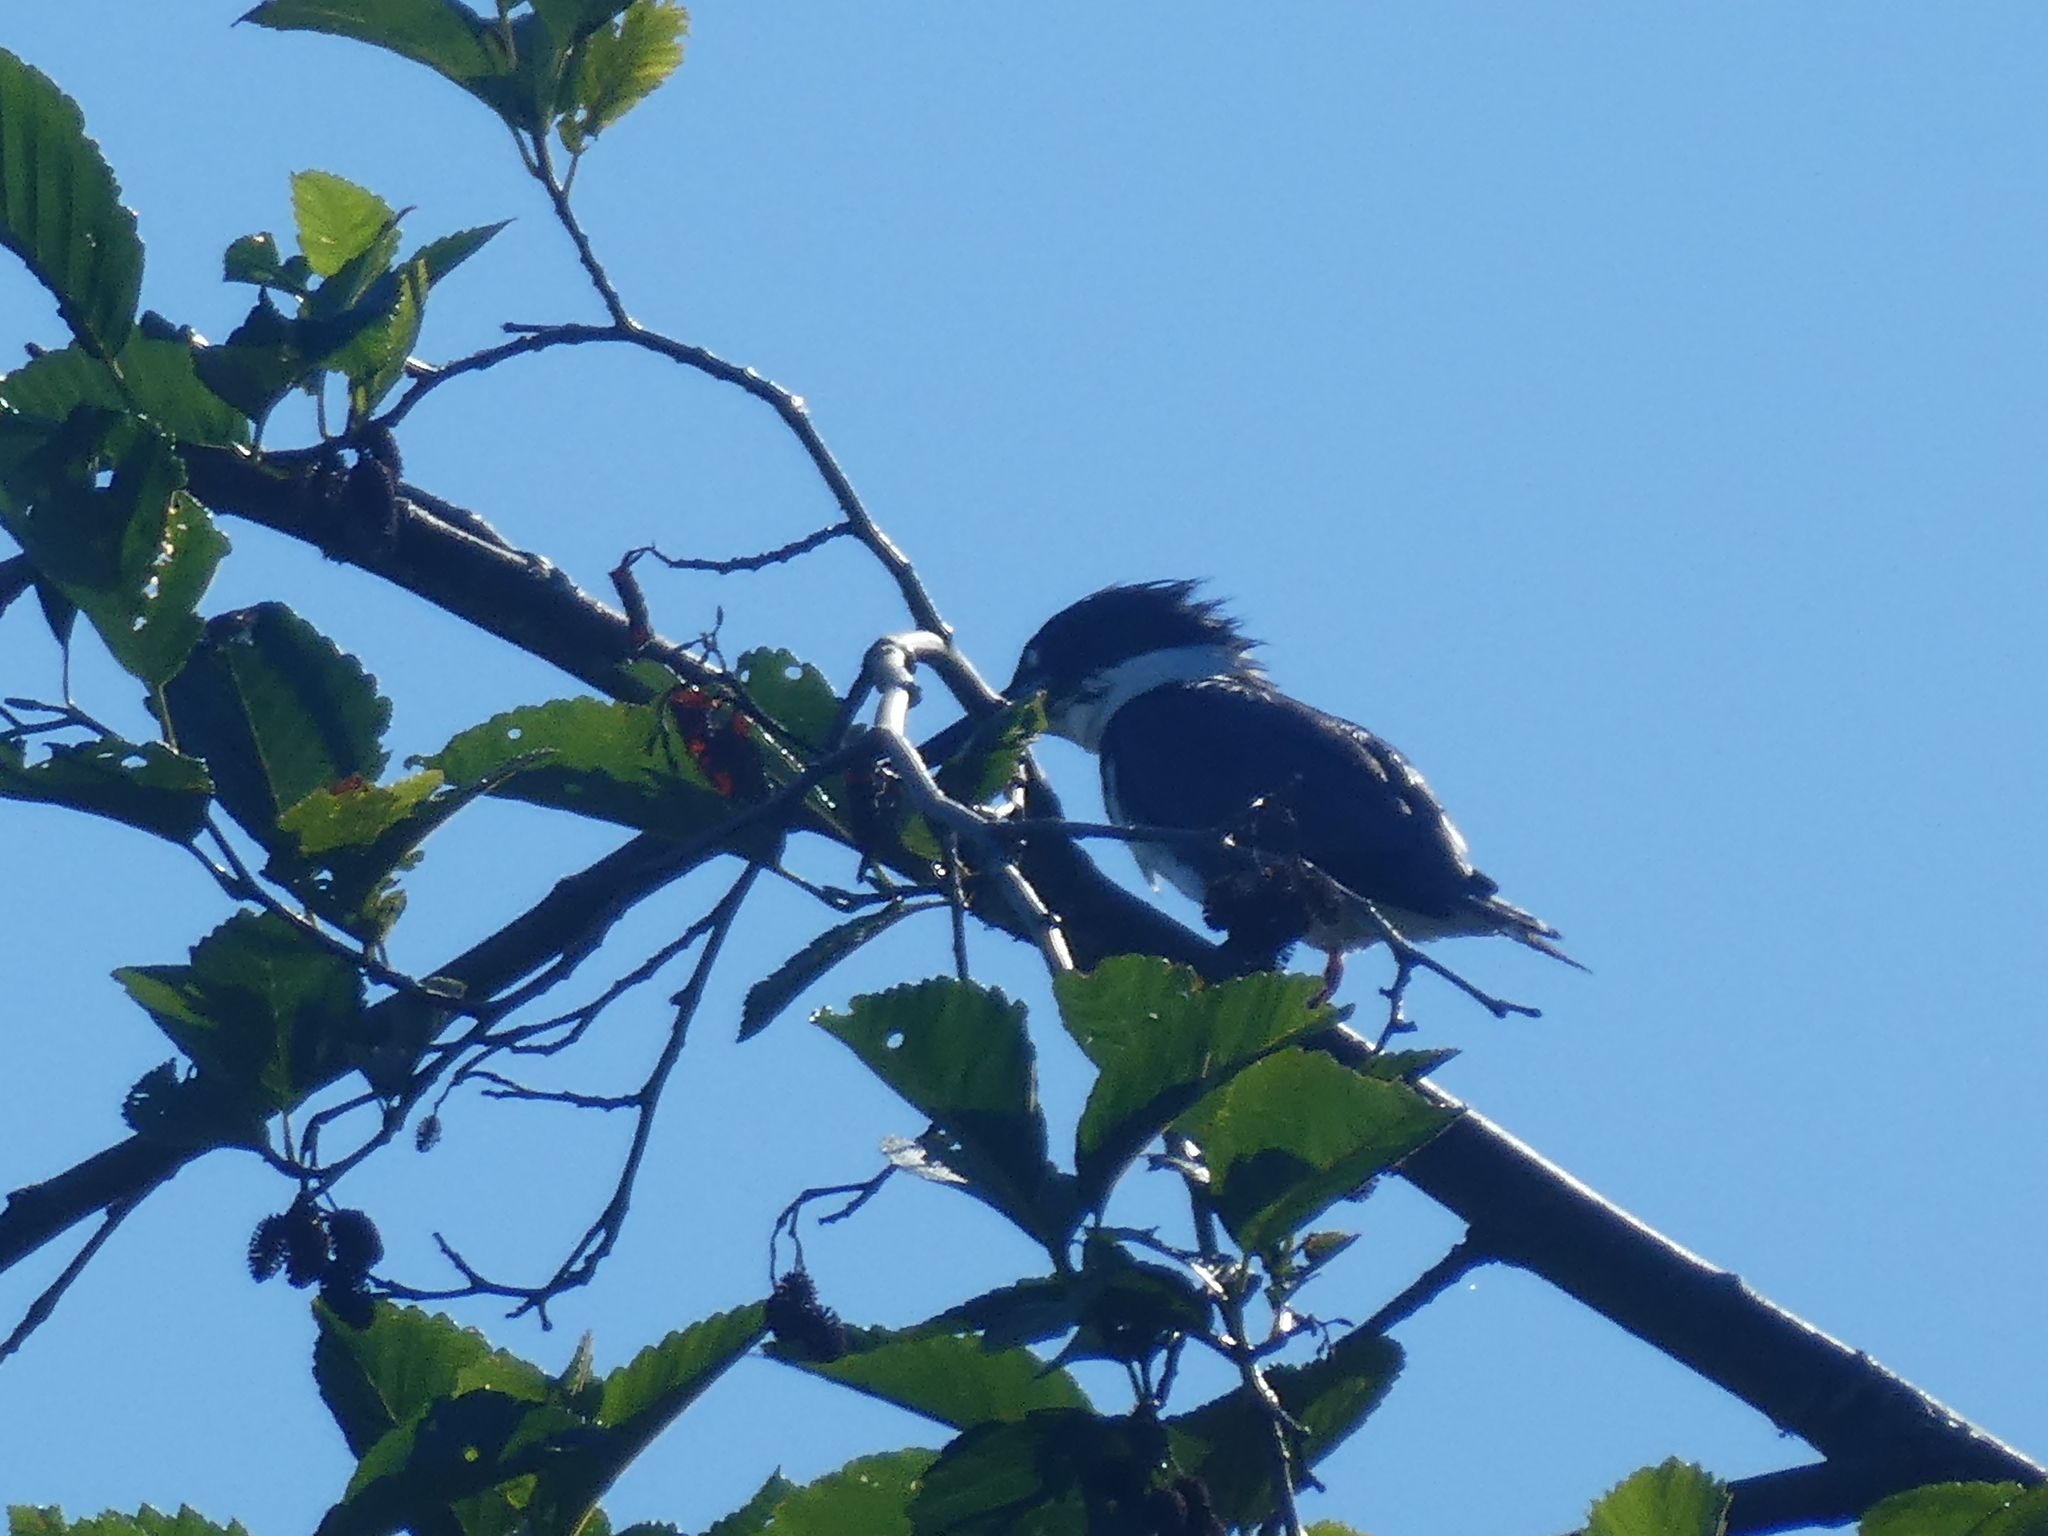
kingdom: Animalia
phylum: Chordata
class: Aves
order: Coraciiformes
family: Alcedinidae
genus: Megaceryle
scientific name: Megaceryle alcyon
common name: Belted kingfisher
